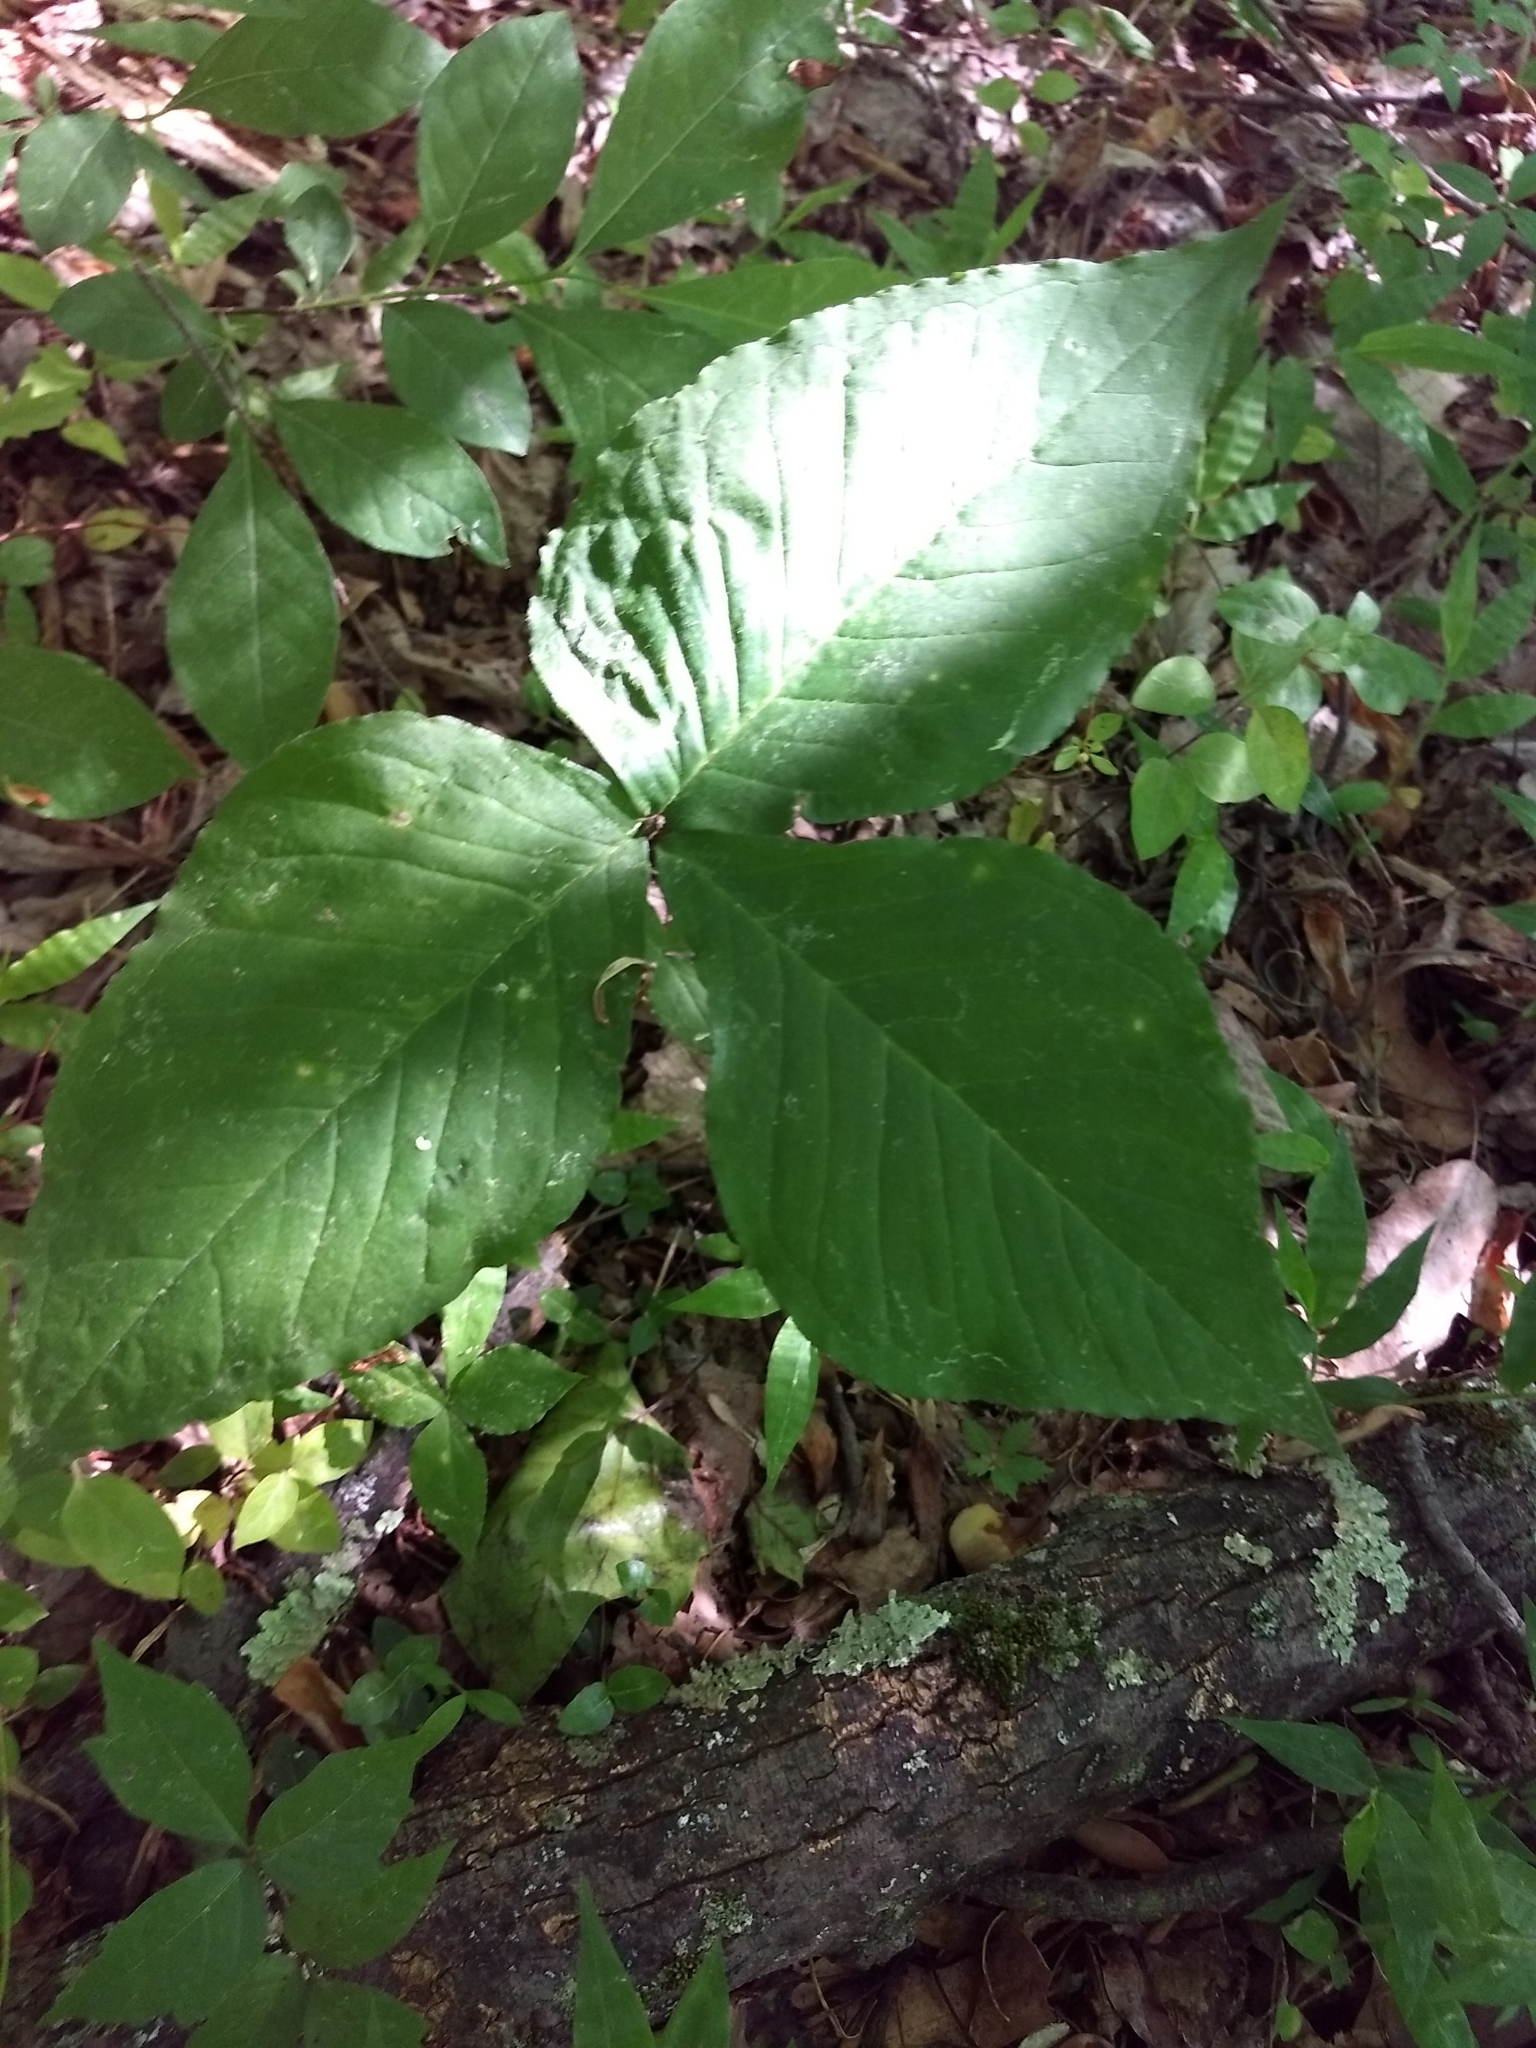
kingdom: Plantae
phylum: Tracheophyta
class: Liliopsida
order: Alismatales
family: Araceae
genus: Arisaema
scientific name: Arisaema triphyllum
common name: Jack-in-the-pulpit
